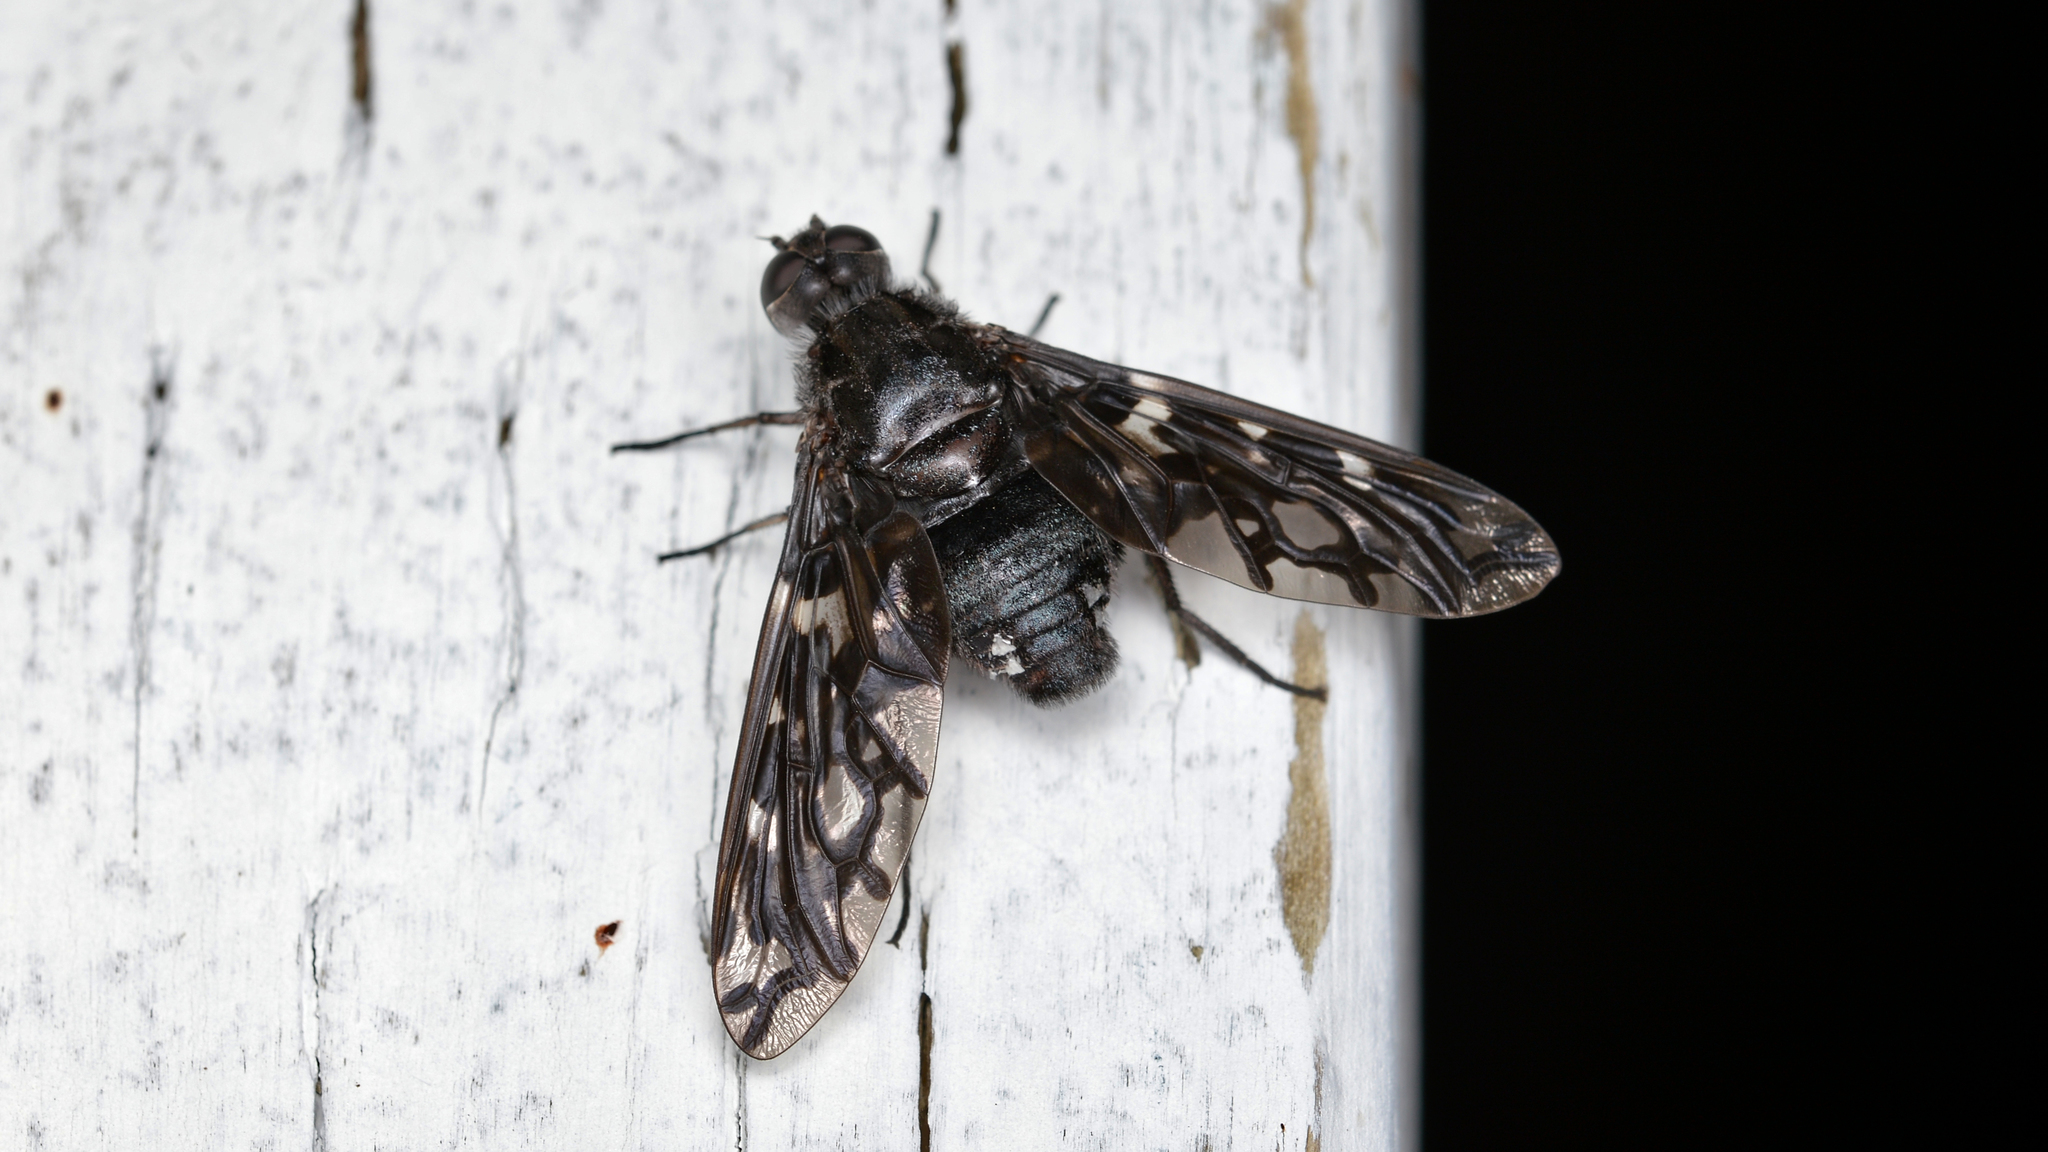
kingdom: Animalia
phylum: Arthropoda
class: Insecta
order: Diptera
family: Bombyliidae
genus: Xenox
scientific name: Xenox tigrinus
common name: Tiger bee fly
